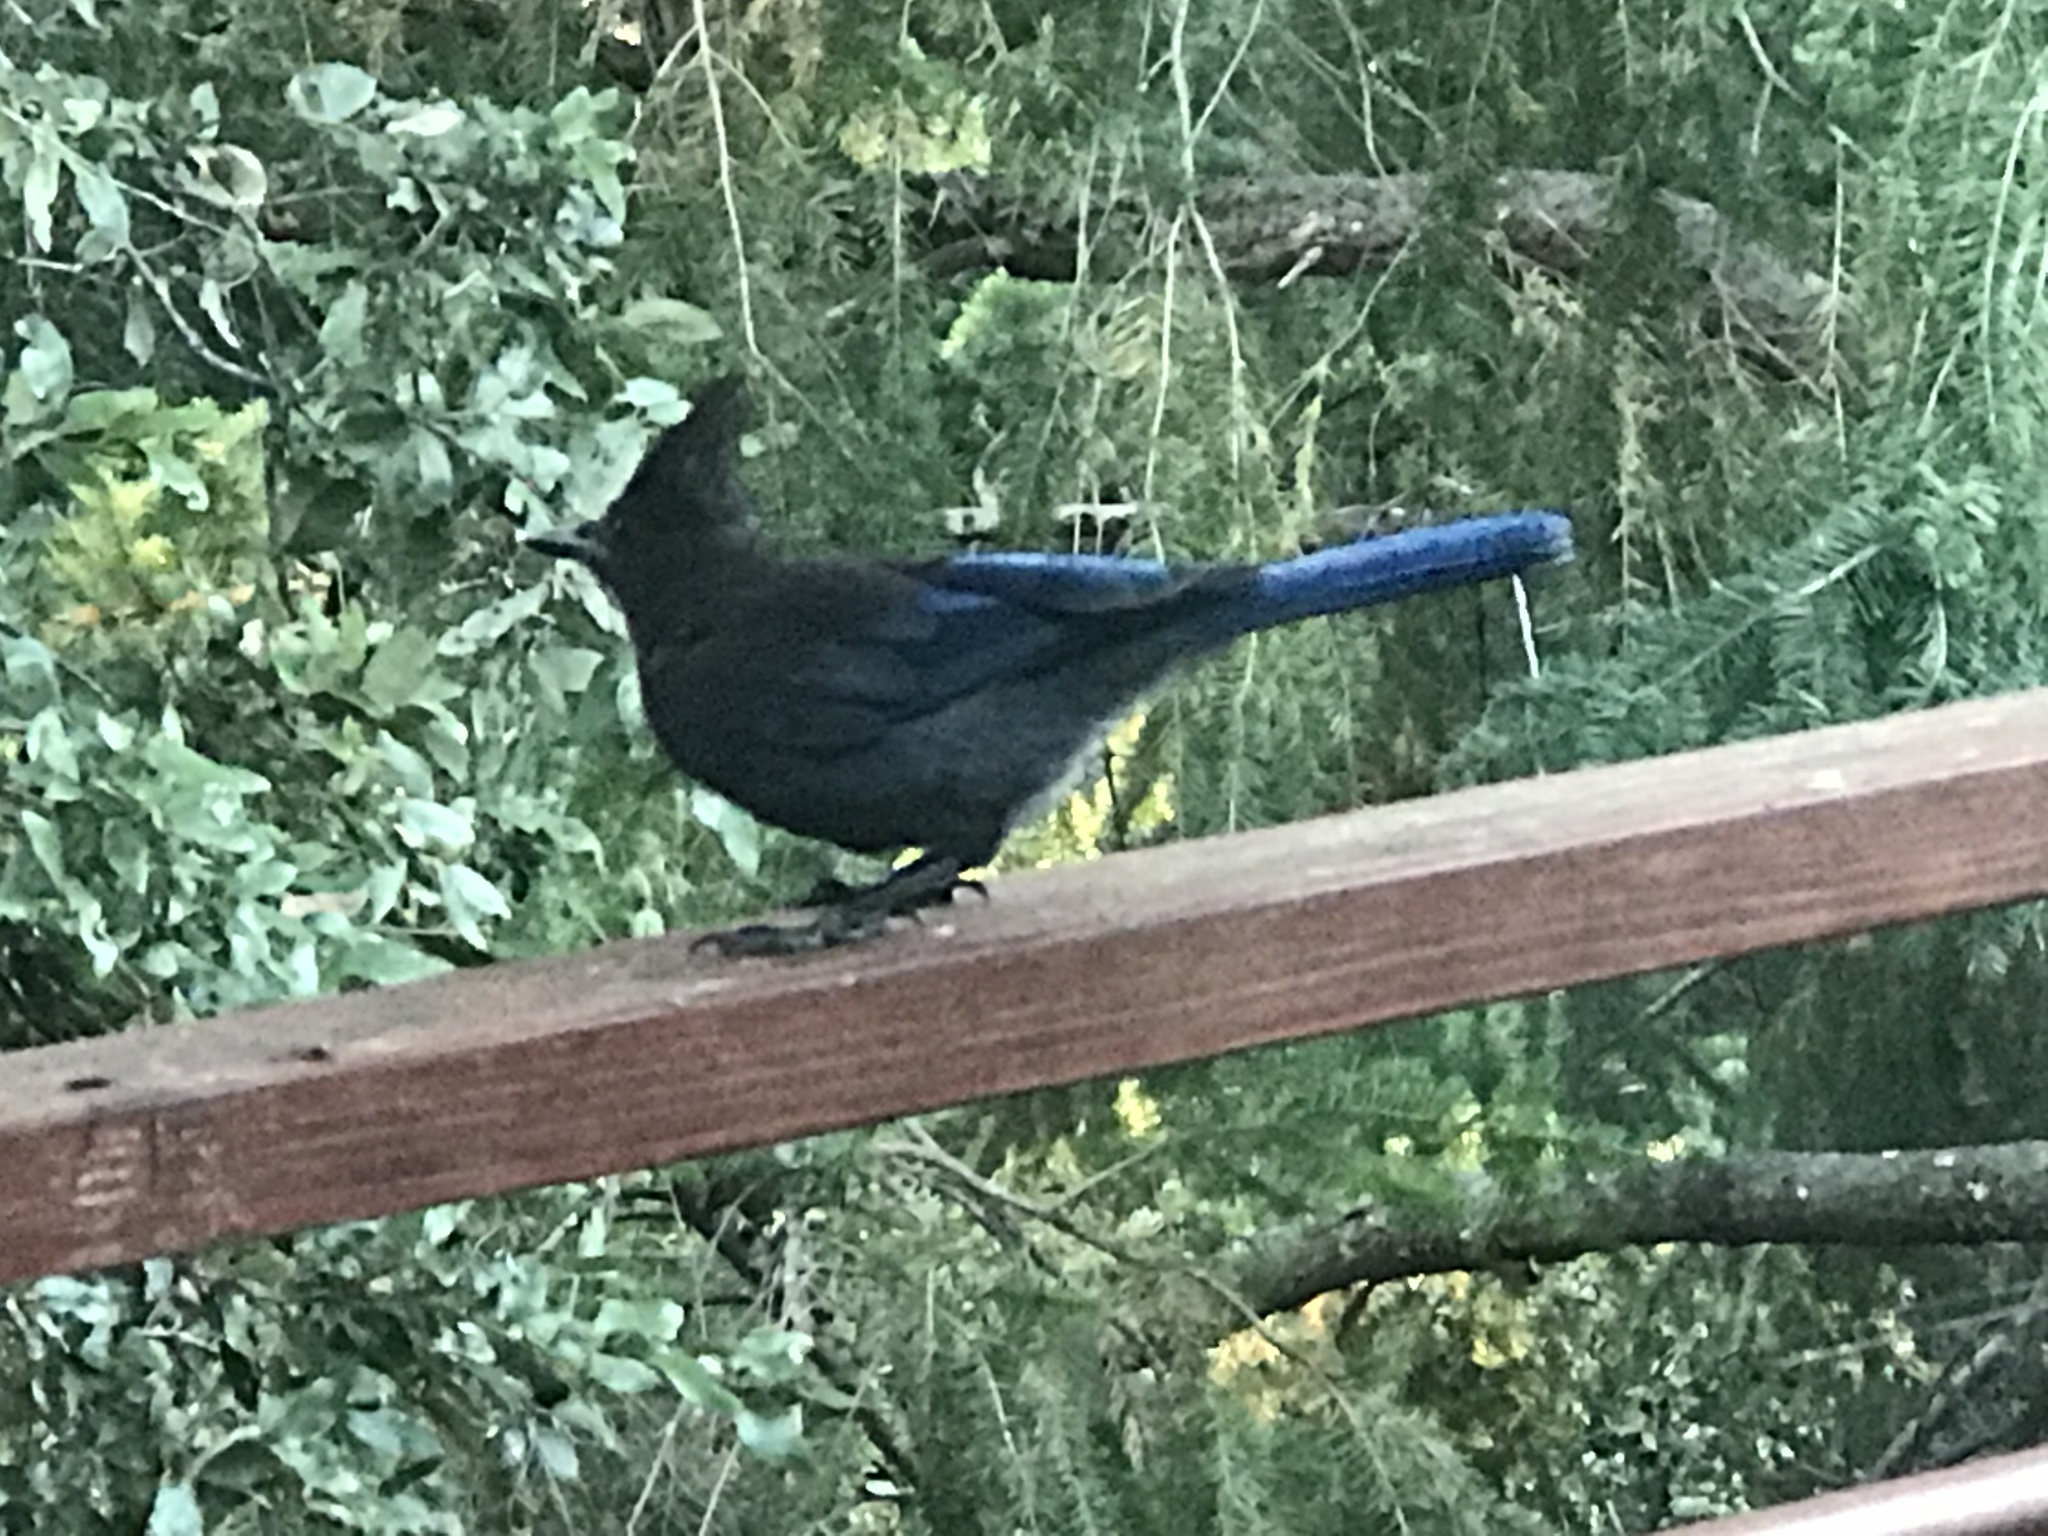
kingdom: Animalia
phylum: Chordata
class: Aves
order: Passeriformes
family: Corvidae
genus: Cyanocitta
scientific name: Cyanocitta stelleri
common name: Steller's jay
